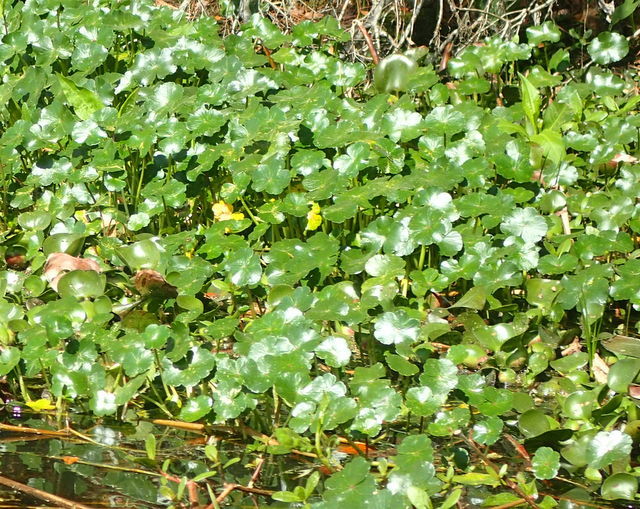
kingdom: Plantae
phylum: Tracheophyta
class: Magnoliopsida
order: Apiales
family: Araliaceae
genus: Hydrocotyle
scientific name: Hydrocotyle ranunculoides
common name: Floating pennywort
